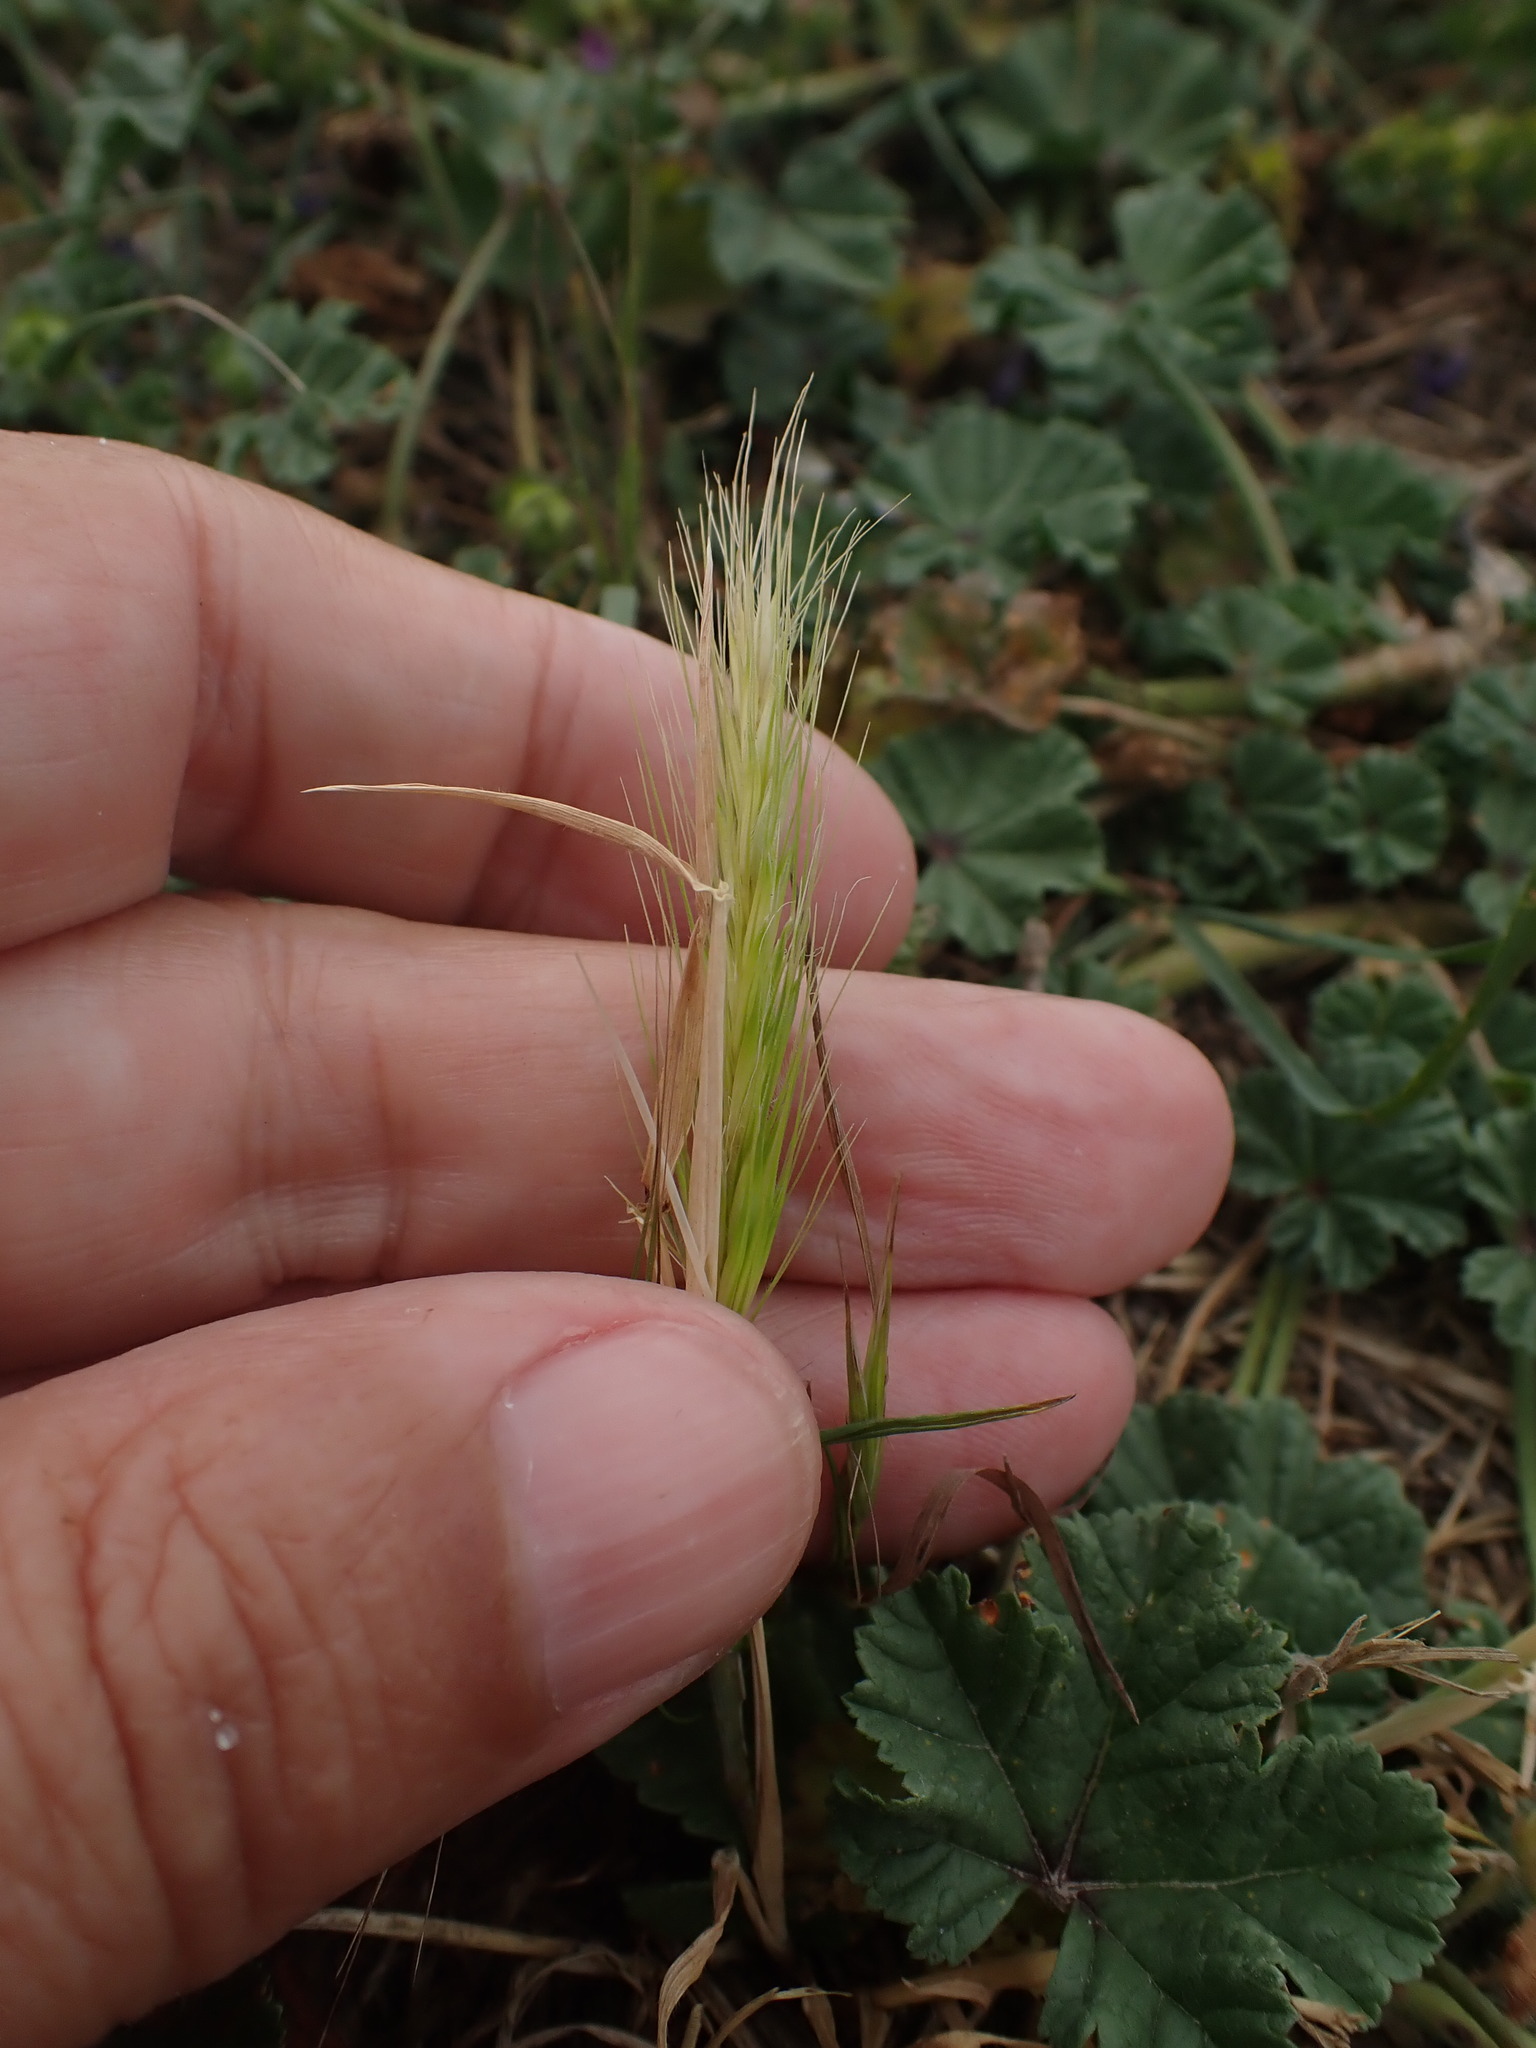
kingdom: Plantae
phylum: Tracheophyta
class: Liliopsida
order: Poales
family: Poaceae
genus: Hordeum
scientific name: Hordeum murinum
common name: Wall barley
